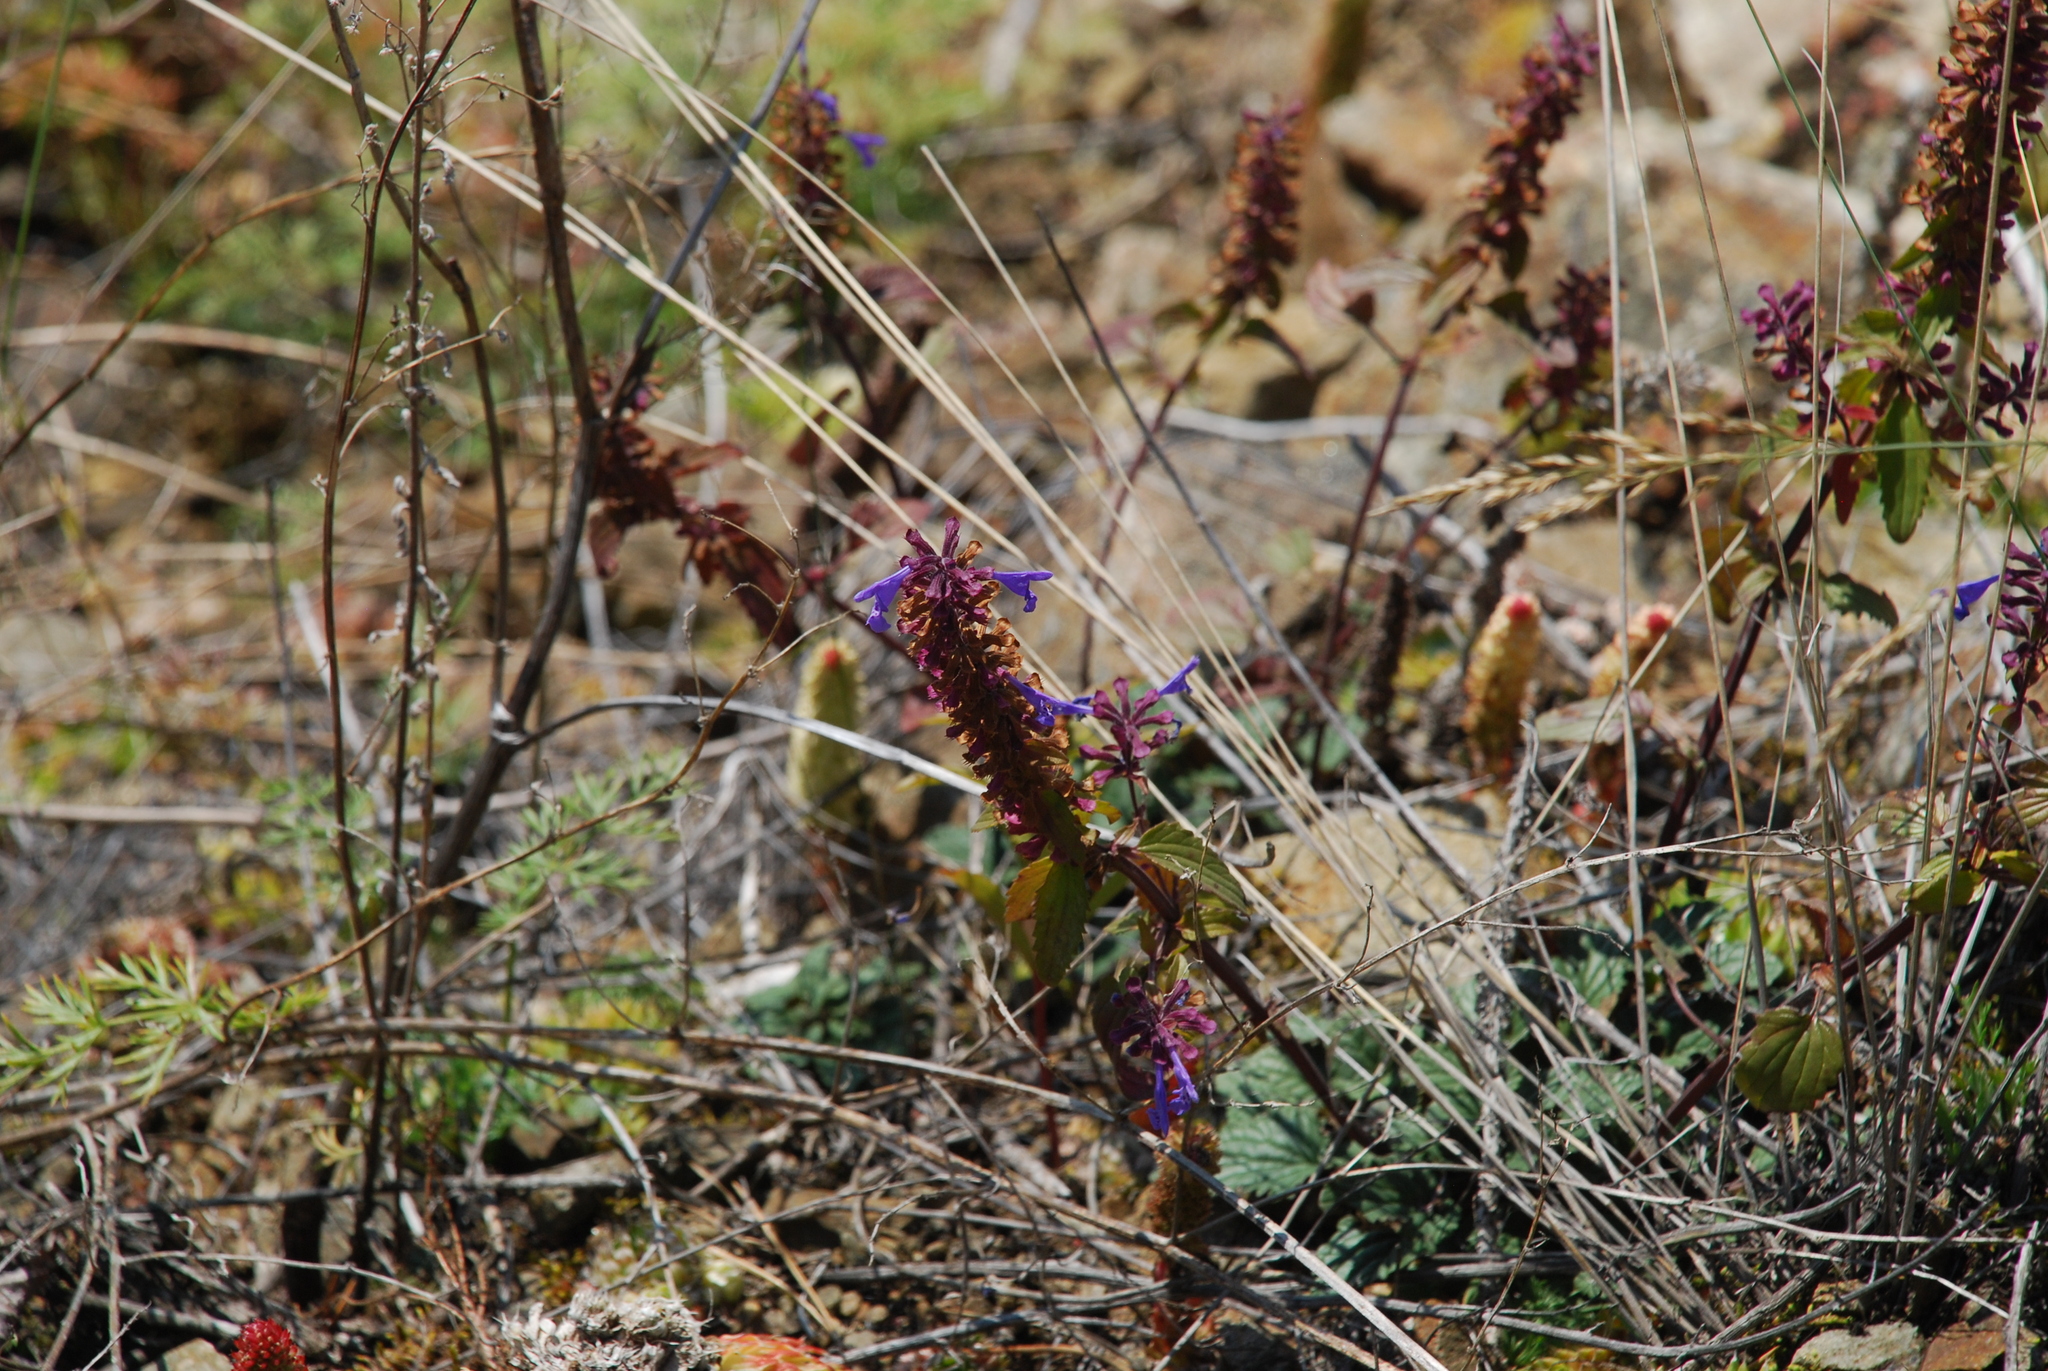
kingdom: Plantae
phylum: Tracheophyta
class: Magnoliopsida
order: Lamiales
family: Lamiaceae
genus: Dracocephalum
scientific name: Dracocephalum nutans
